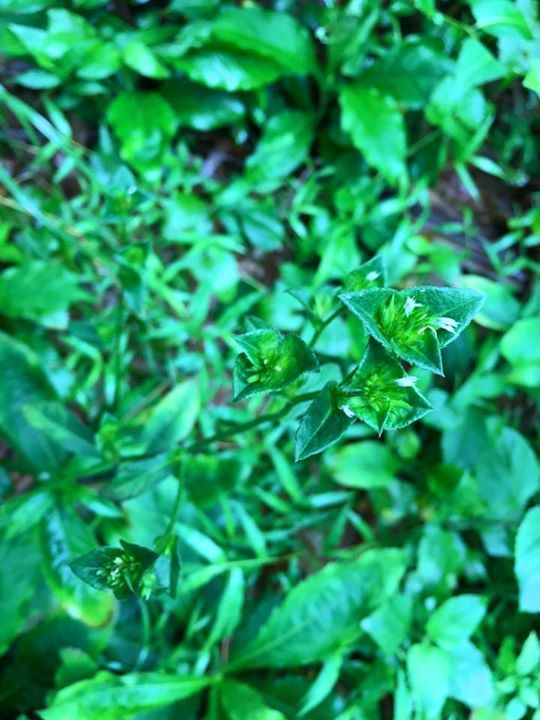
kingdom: Plantae
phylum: Tracheophyta
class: Magnoliopsida
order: Asterales
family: Asteraceae
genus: Elephantopus
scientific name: Elephantopus mollis
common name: Soft elephantsfoot
